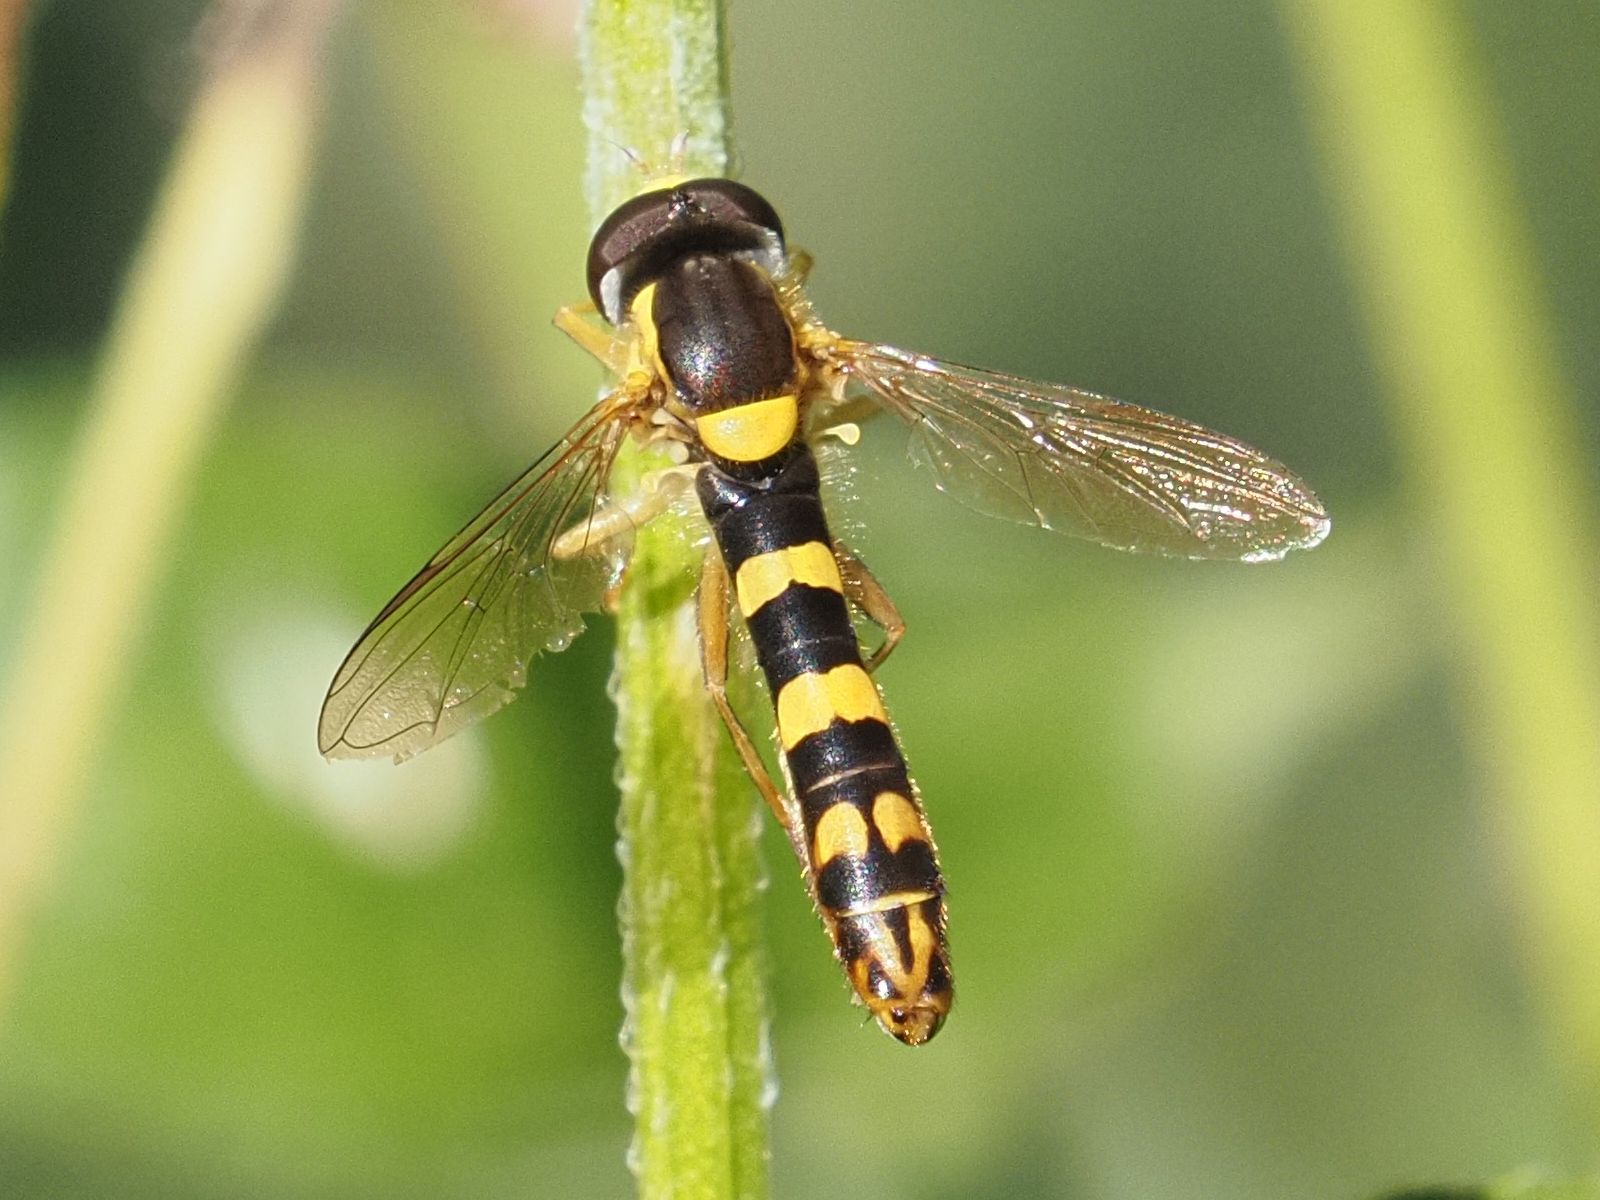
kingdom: Animalia
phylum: Arthropoda
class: Insecta
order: Diptera
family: Syrphidae
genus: Sphaerophoria
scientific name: Sphaerophoria scripta
